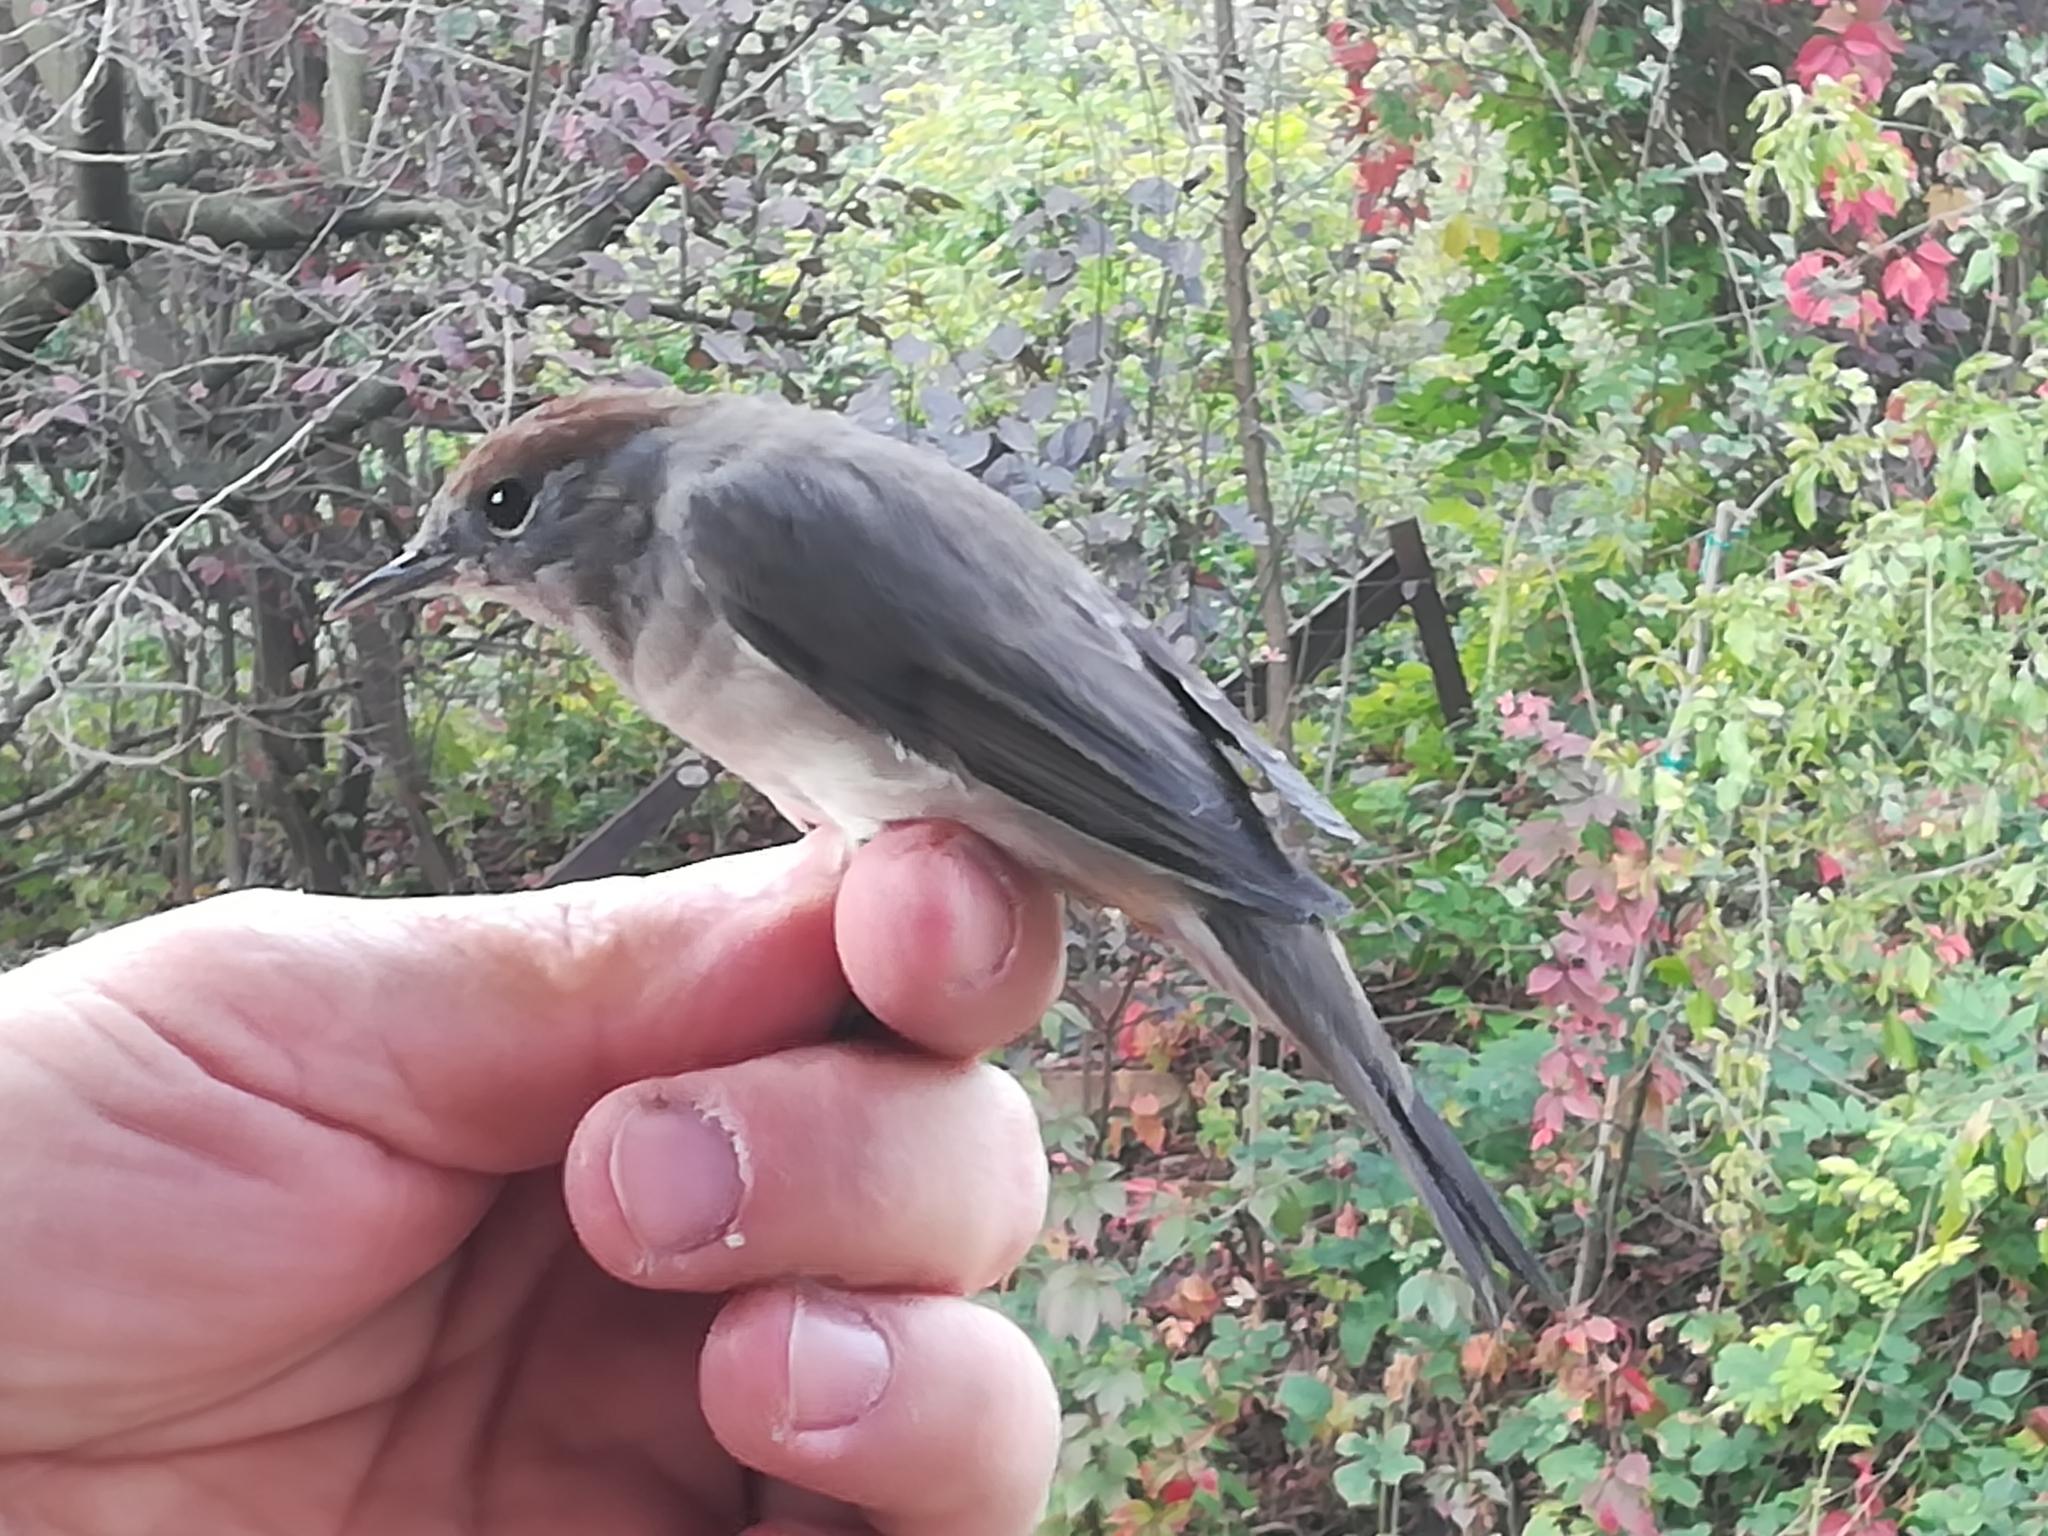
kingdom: Animalia
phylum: Chordata
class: Aves
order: Passeriformes
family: Sylviidae
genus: Sylvia
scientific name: Sylvia atricapilla
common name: Eurasian blackcap
